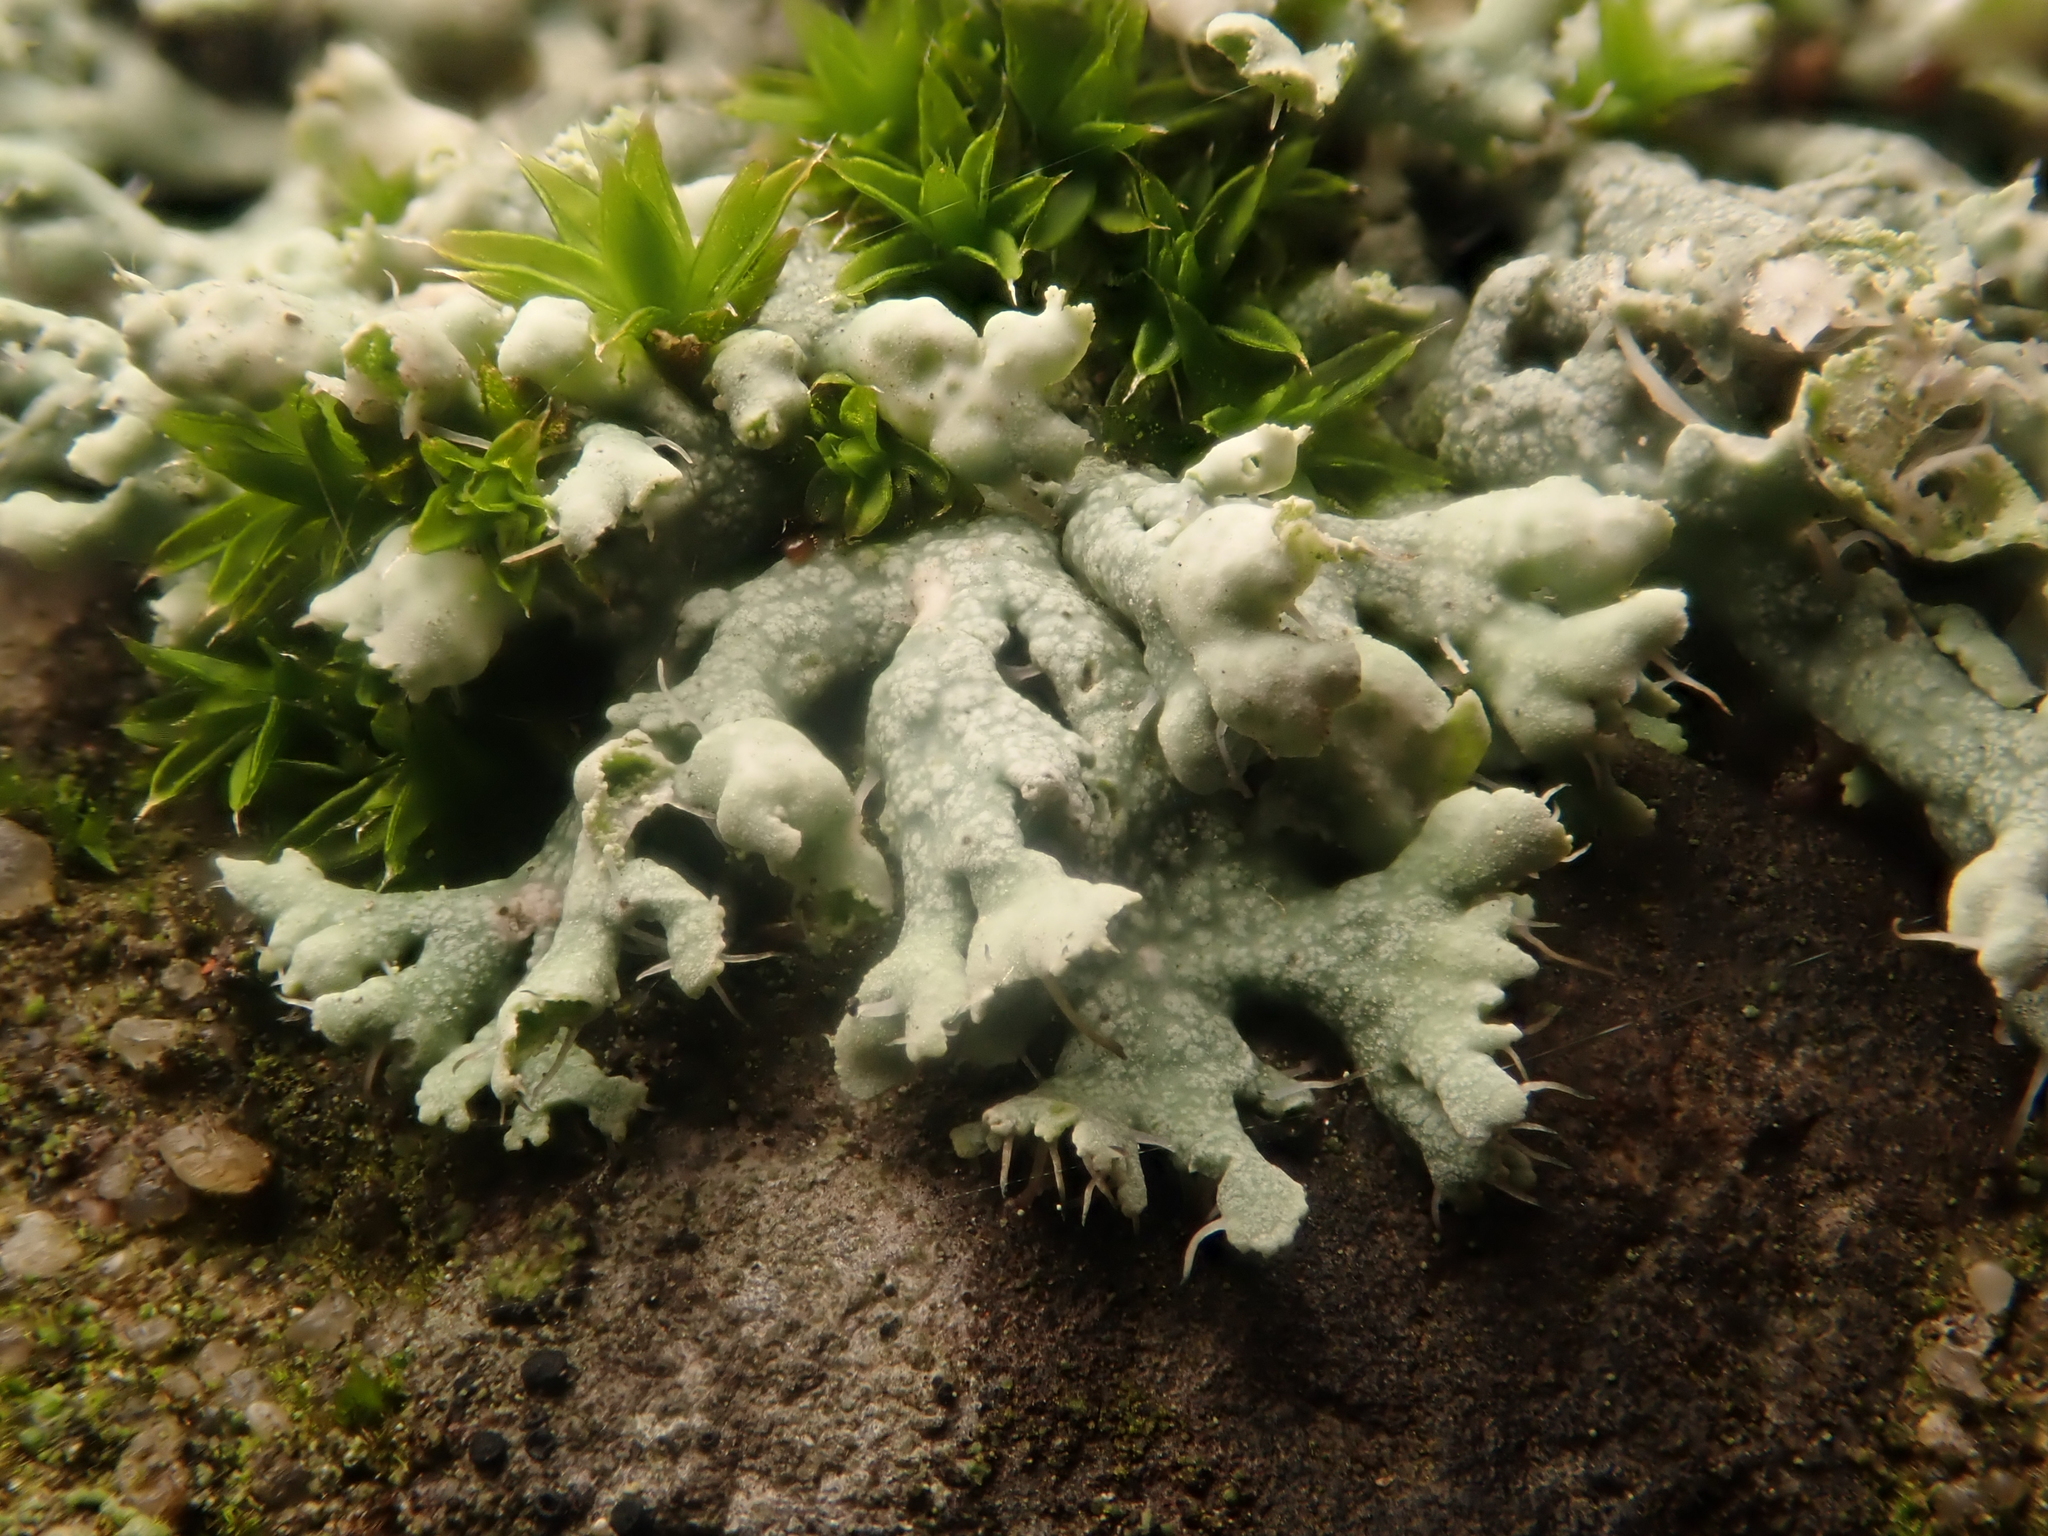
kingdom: Fungi
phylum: Ascomycota
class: Lecanoromycetes
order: Caliciales
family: Physciaceae
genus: Physcia
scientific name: Physcia adscendens
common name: Hooded rosette lichen
